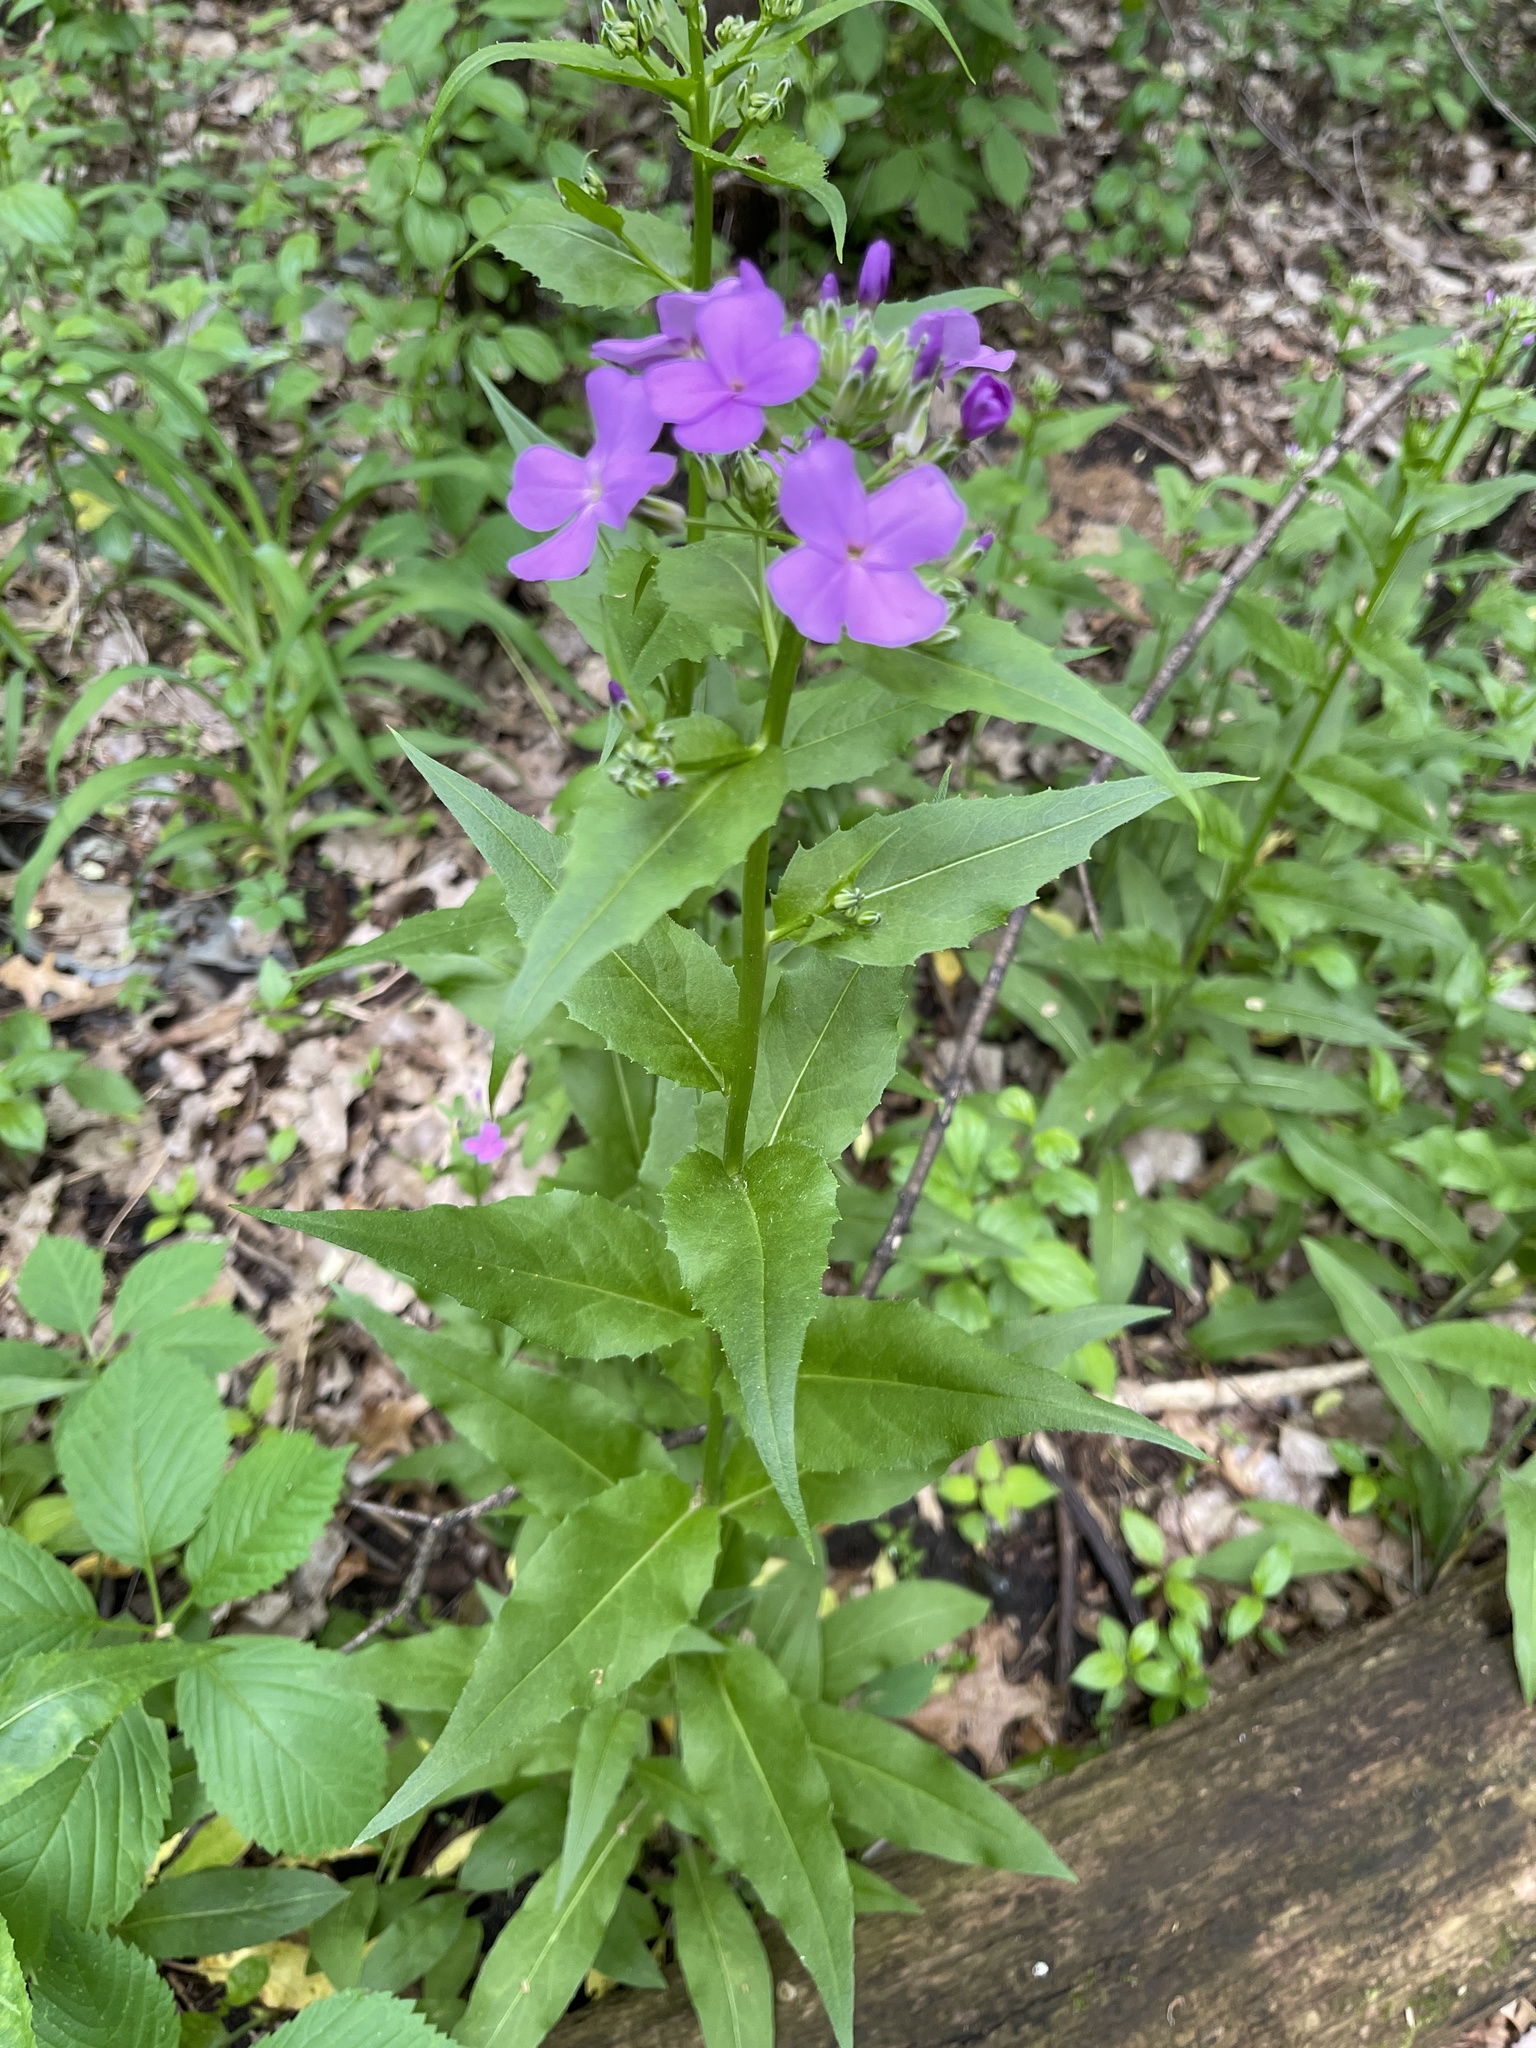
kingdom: Plantae
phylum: Tracheophyta
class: Magnoliopsida
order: Brassicales
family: Brassicaceae
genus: Hesperis
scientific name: Hesperis matronalis
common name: Dame's-violet
